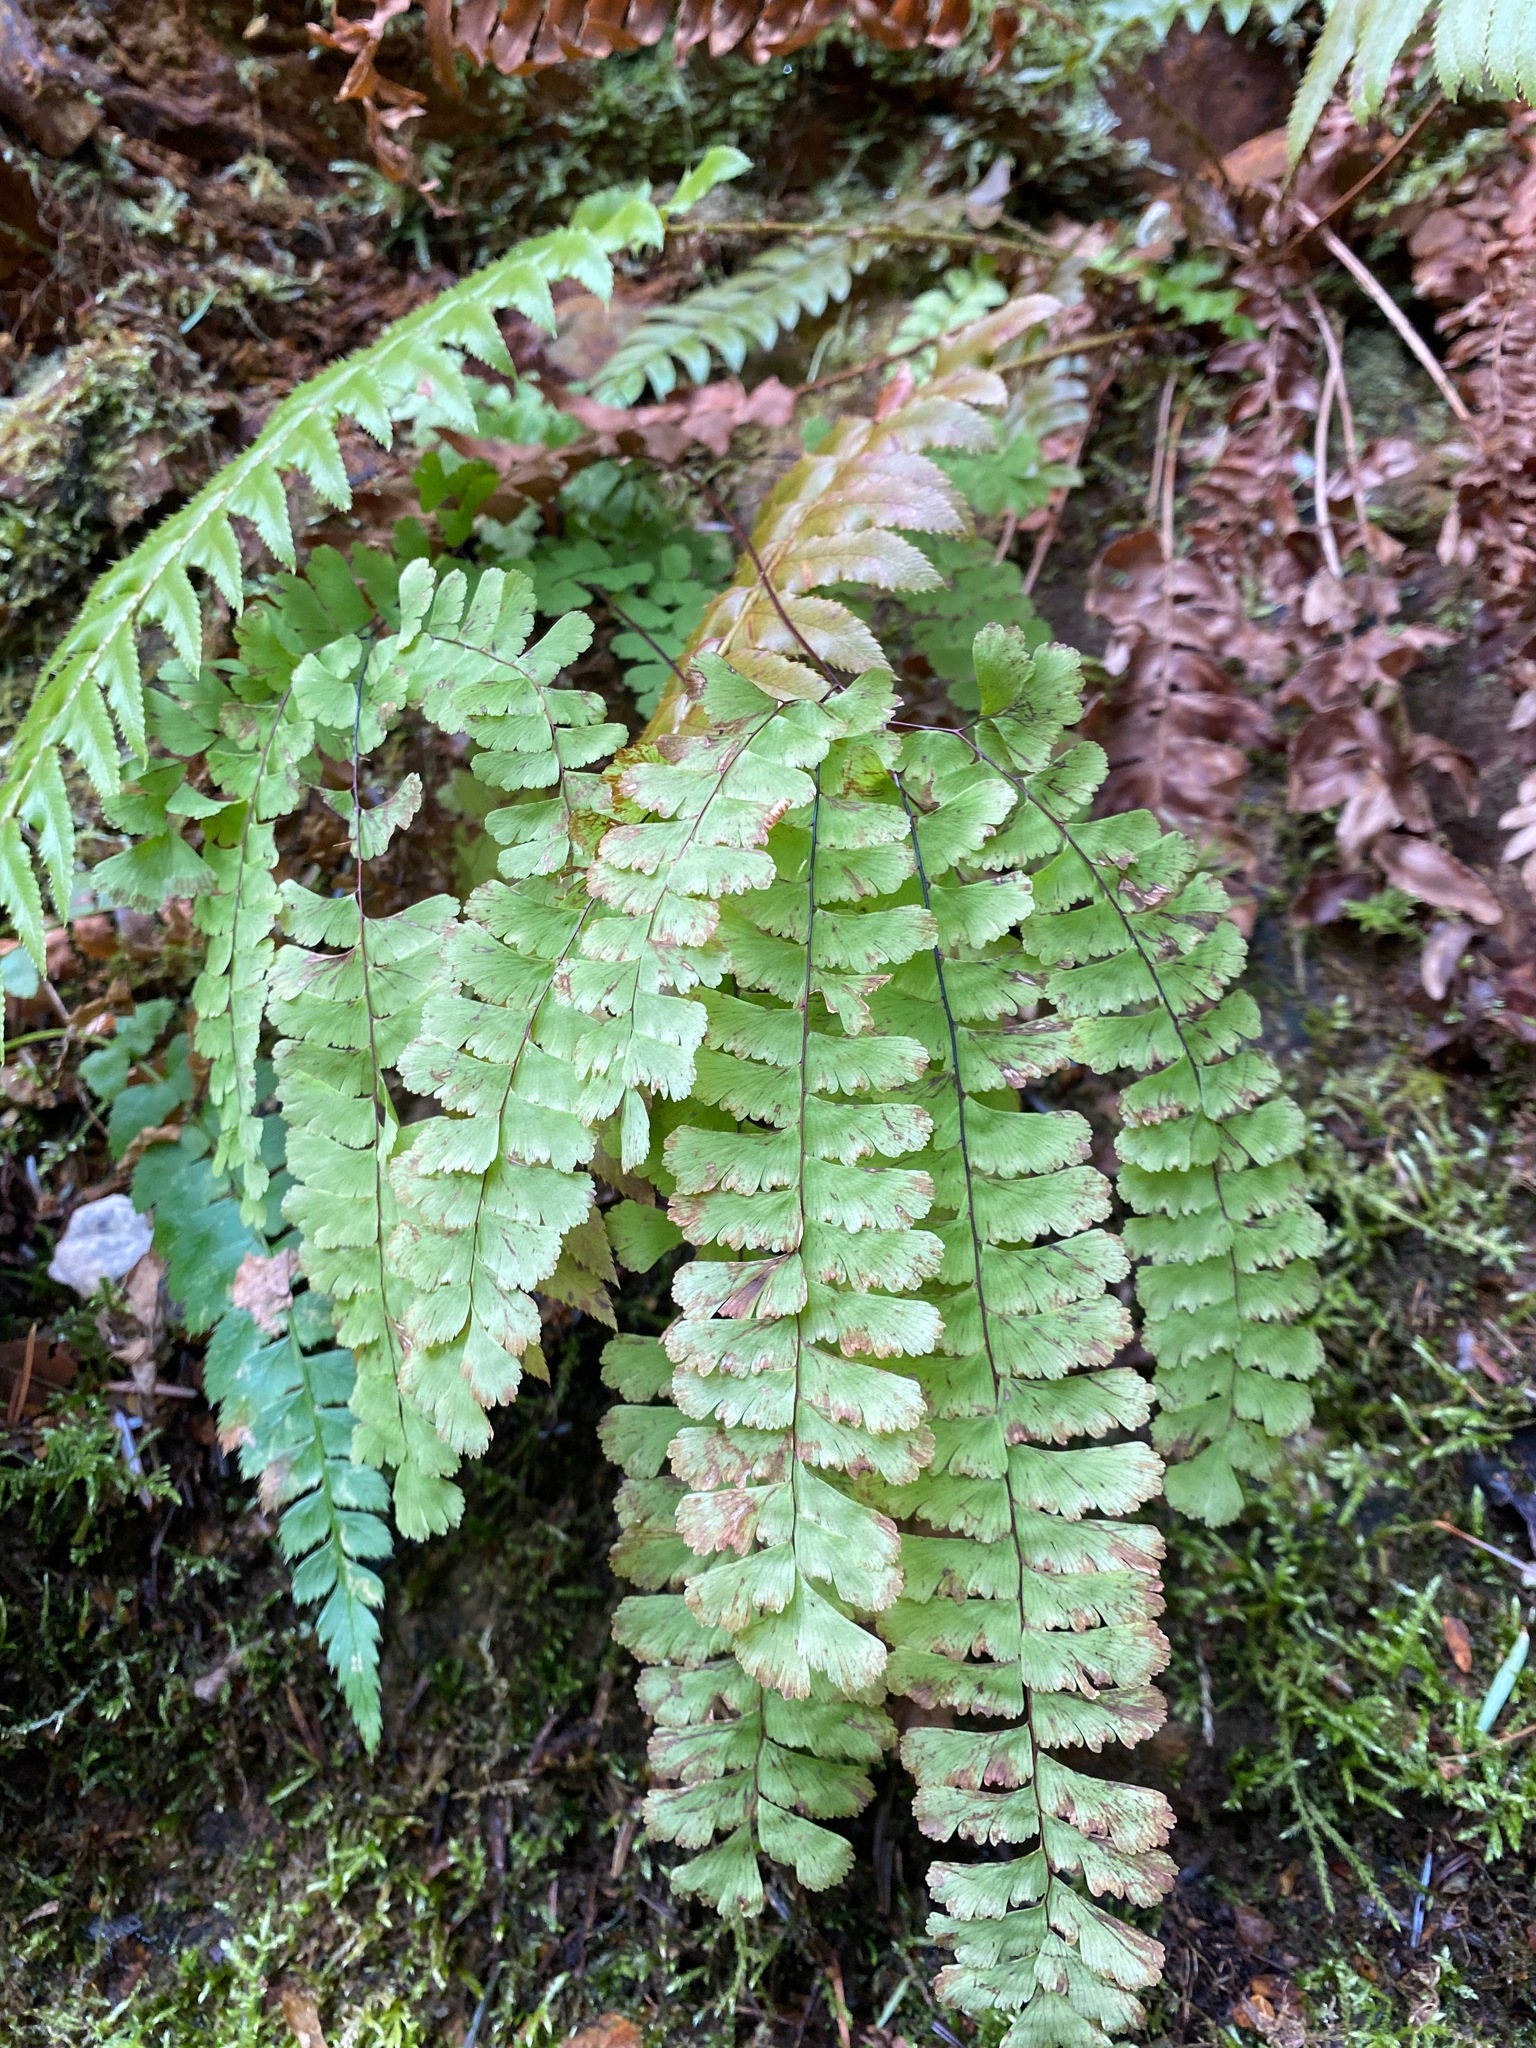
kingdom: Plantae
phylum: Tracheophyta
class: Polypodiopsida
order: Polypodiales
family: Pteridaceae
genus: Adiantum
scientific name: Adiantum aleuticum
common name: Aleutian maidenhair fern
